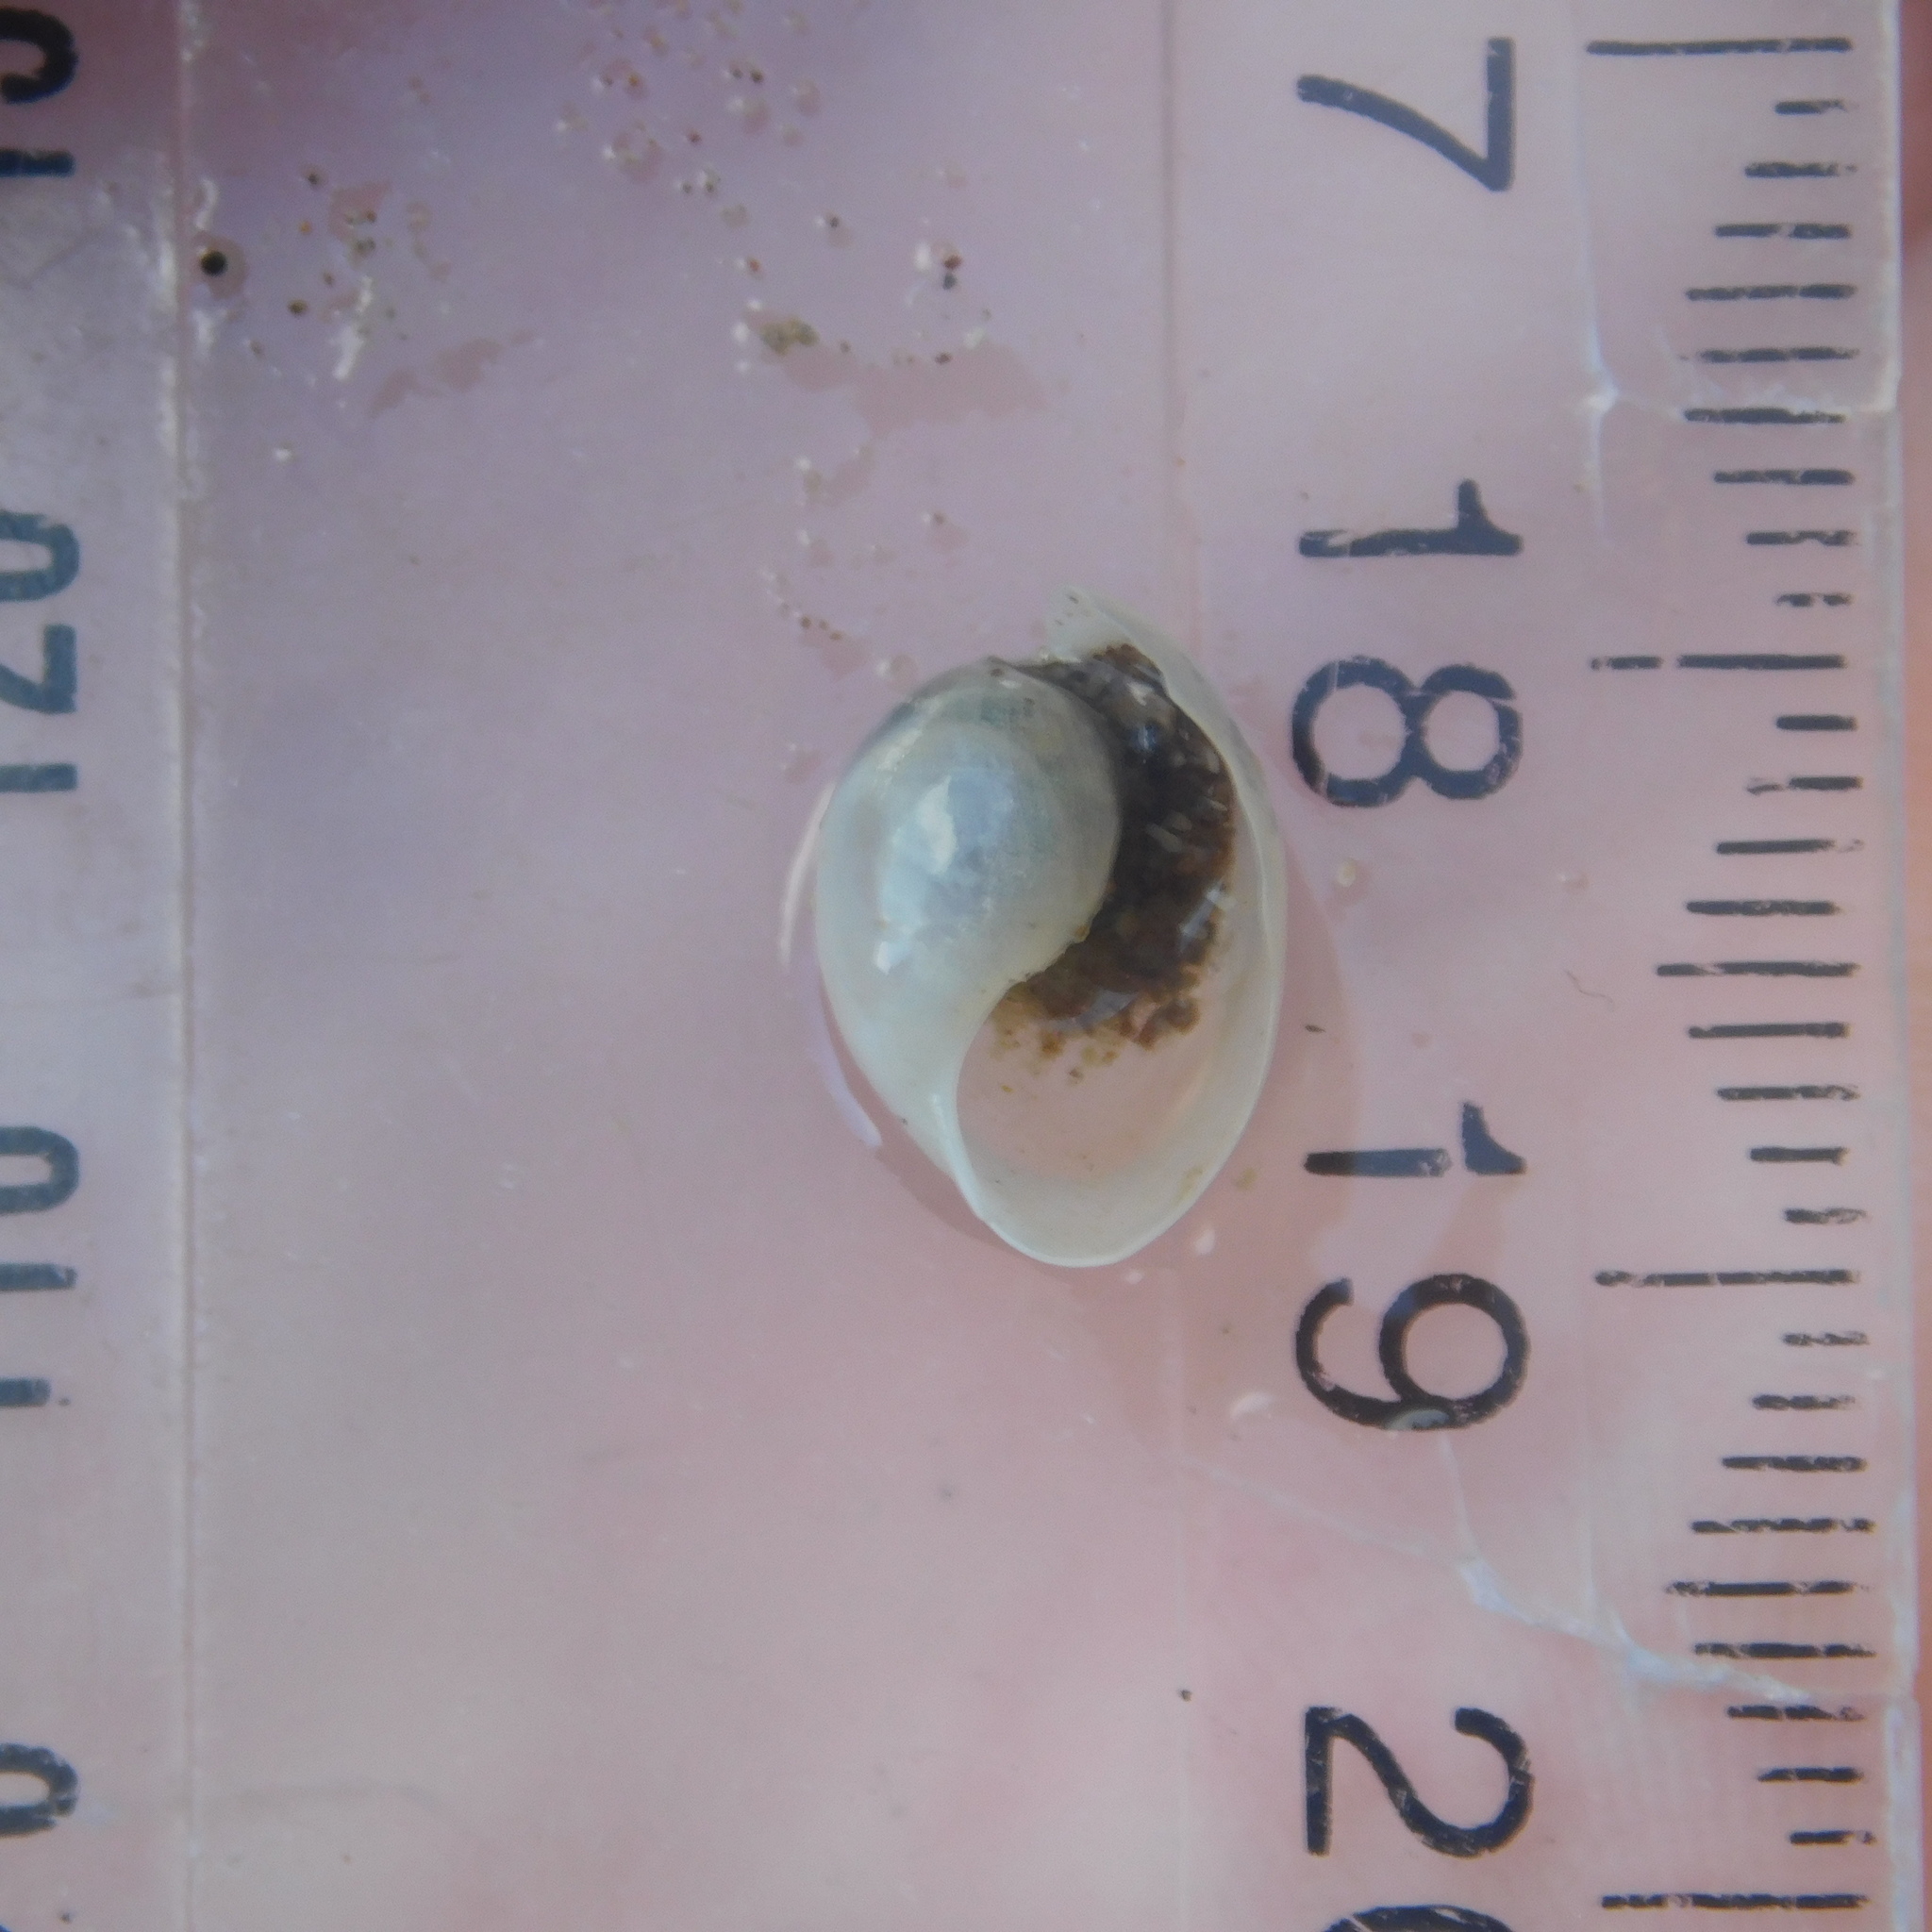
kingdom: Animalia
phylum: Mollusca
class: Gastropoda
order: Cephalaspidea
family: Haminoeidae
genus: Papawera
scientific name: Papawera zelandiae
